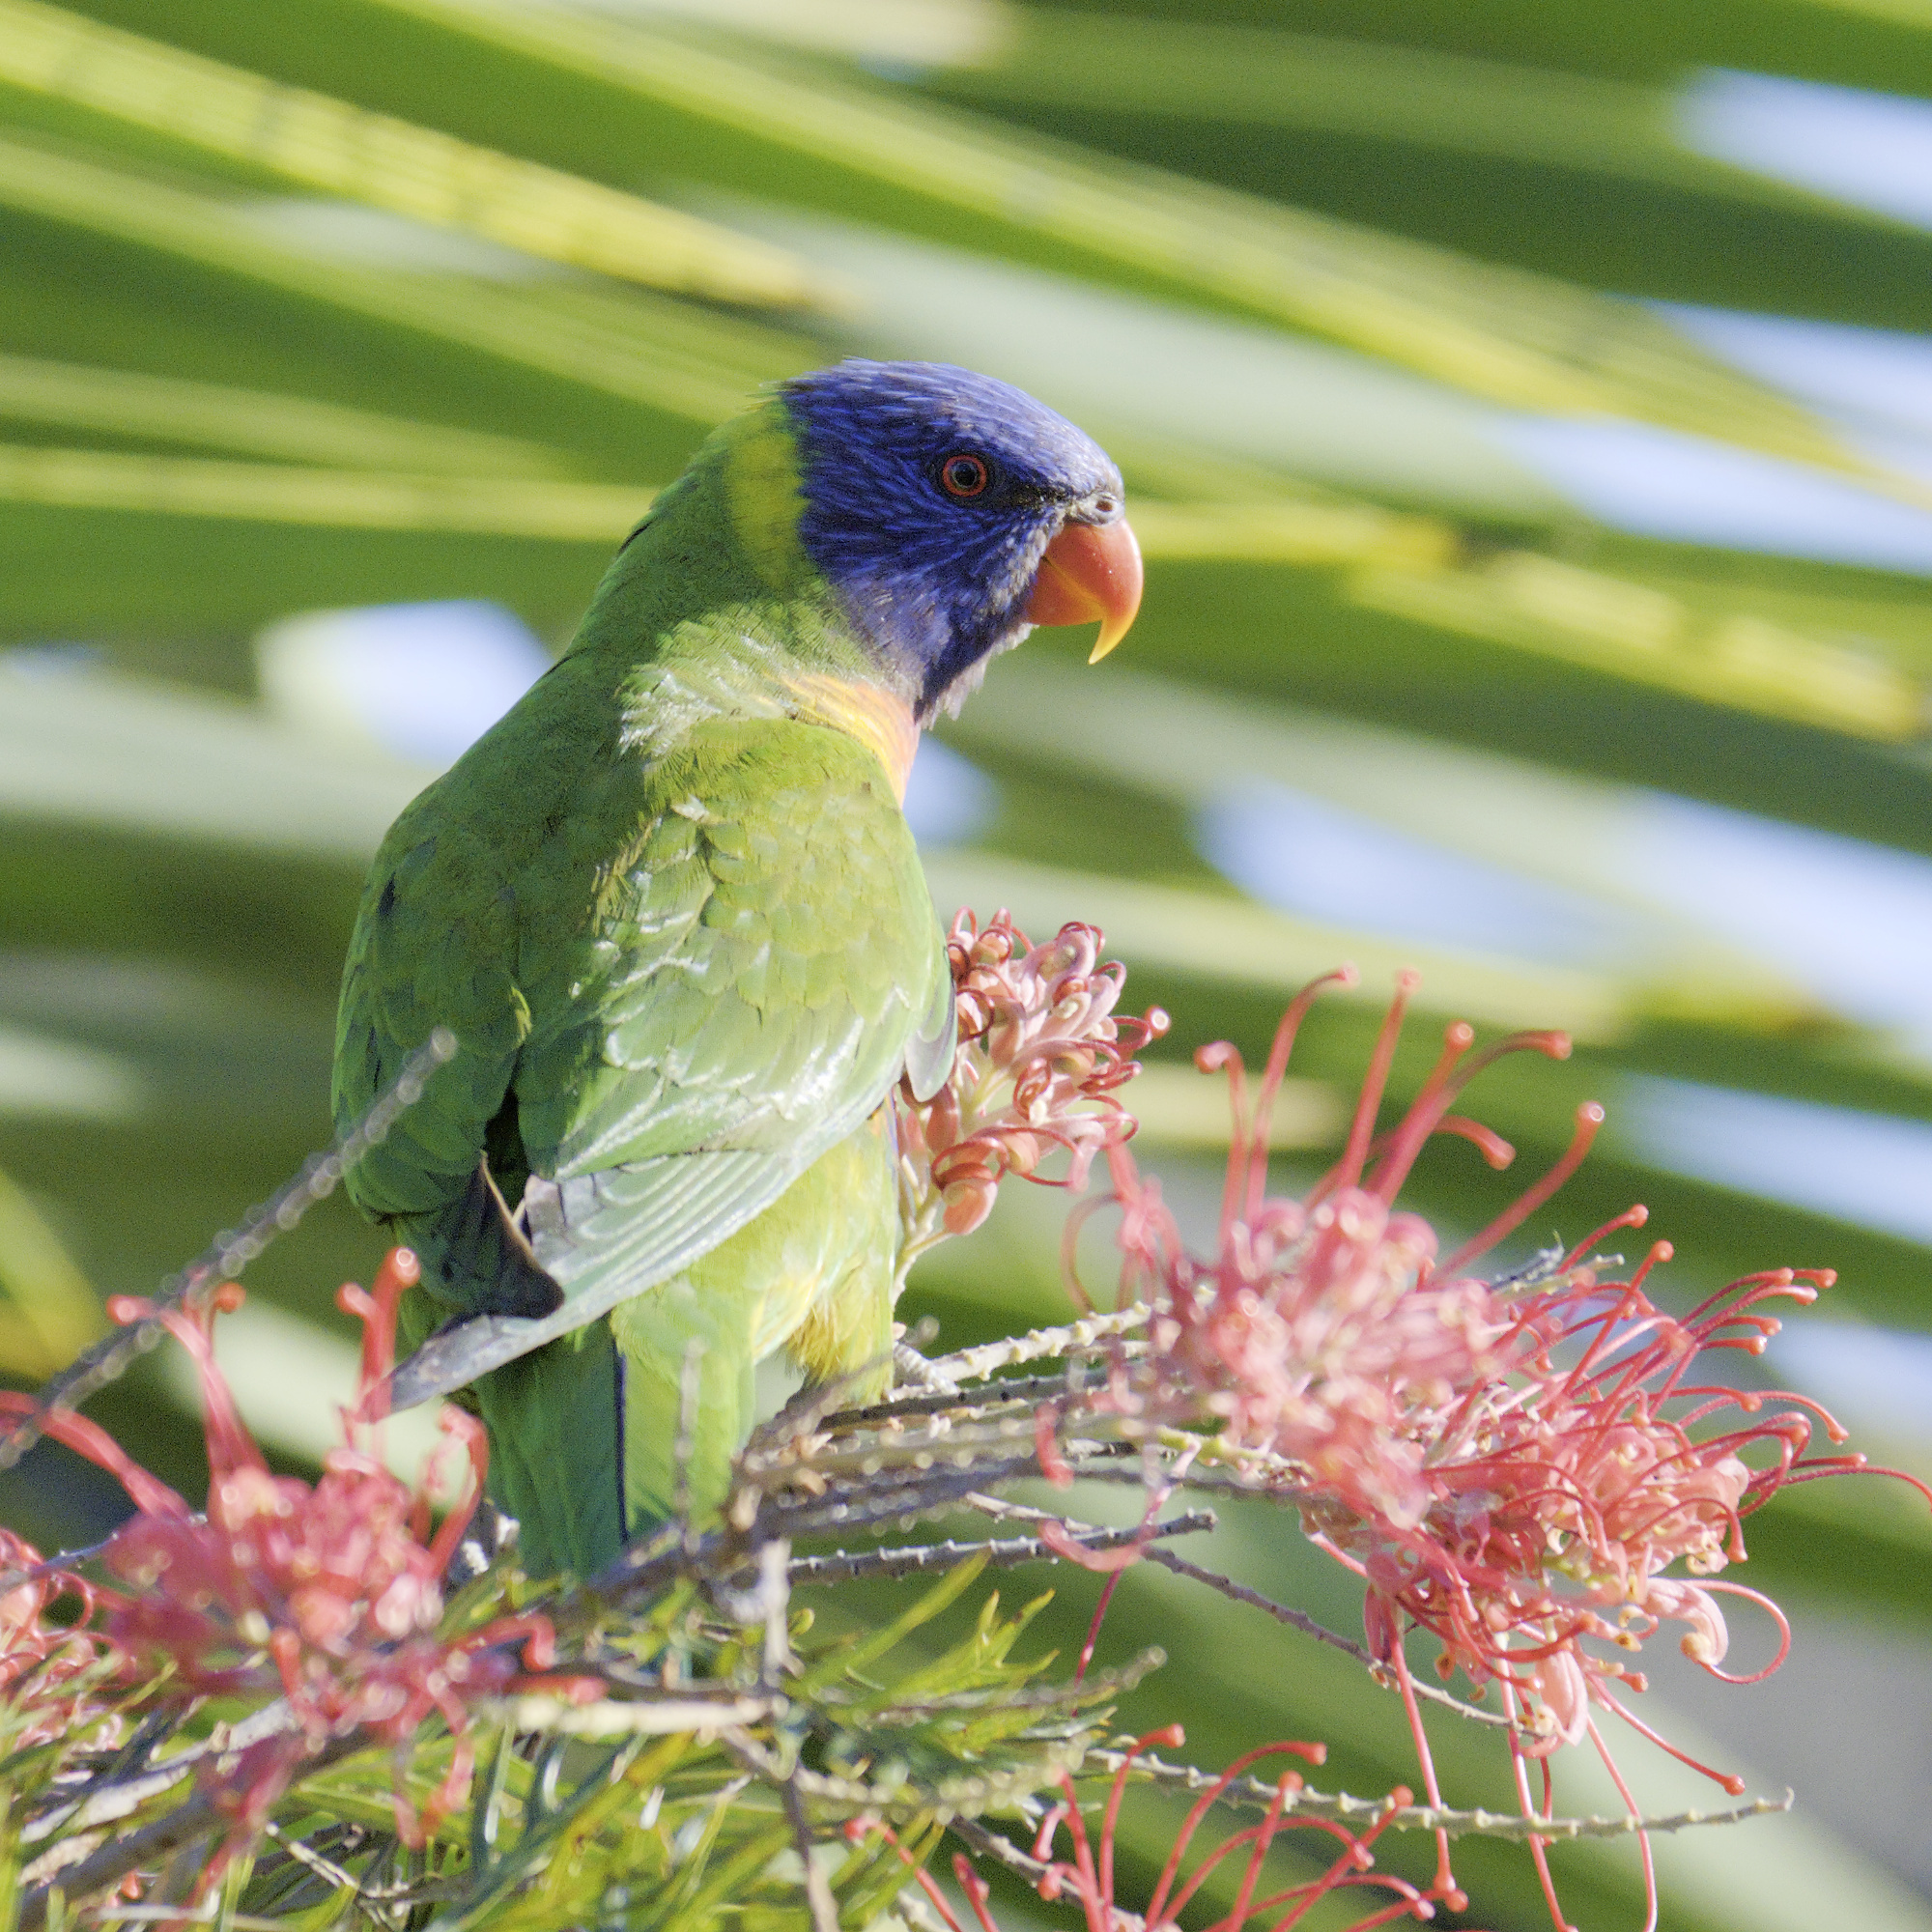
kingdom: Animalia
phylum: Chordata
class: Aves
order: Psittaciformes
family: Psittacidae
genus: Trichoglossus
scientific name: Trichoglossus haematodus
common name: Coconut lorikeet
